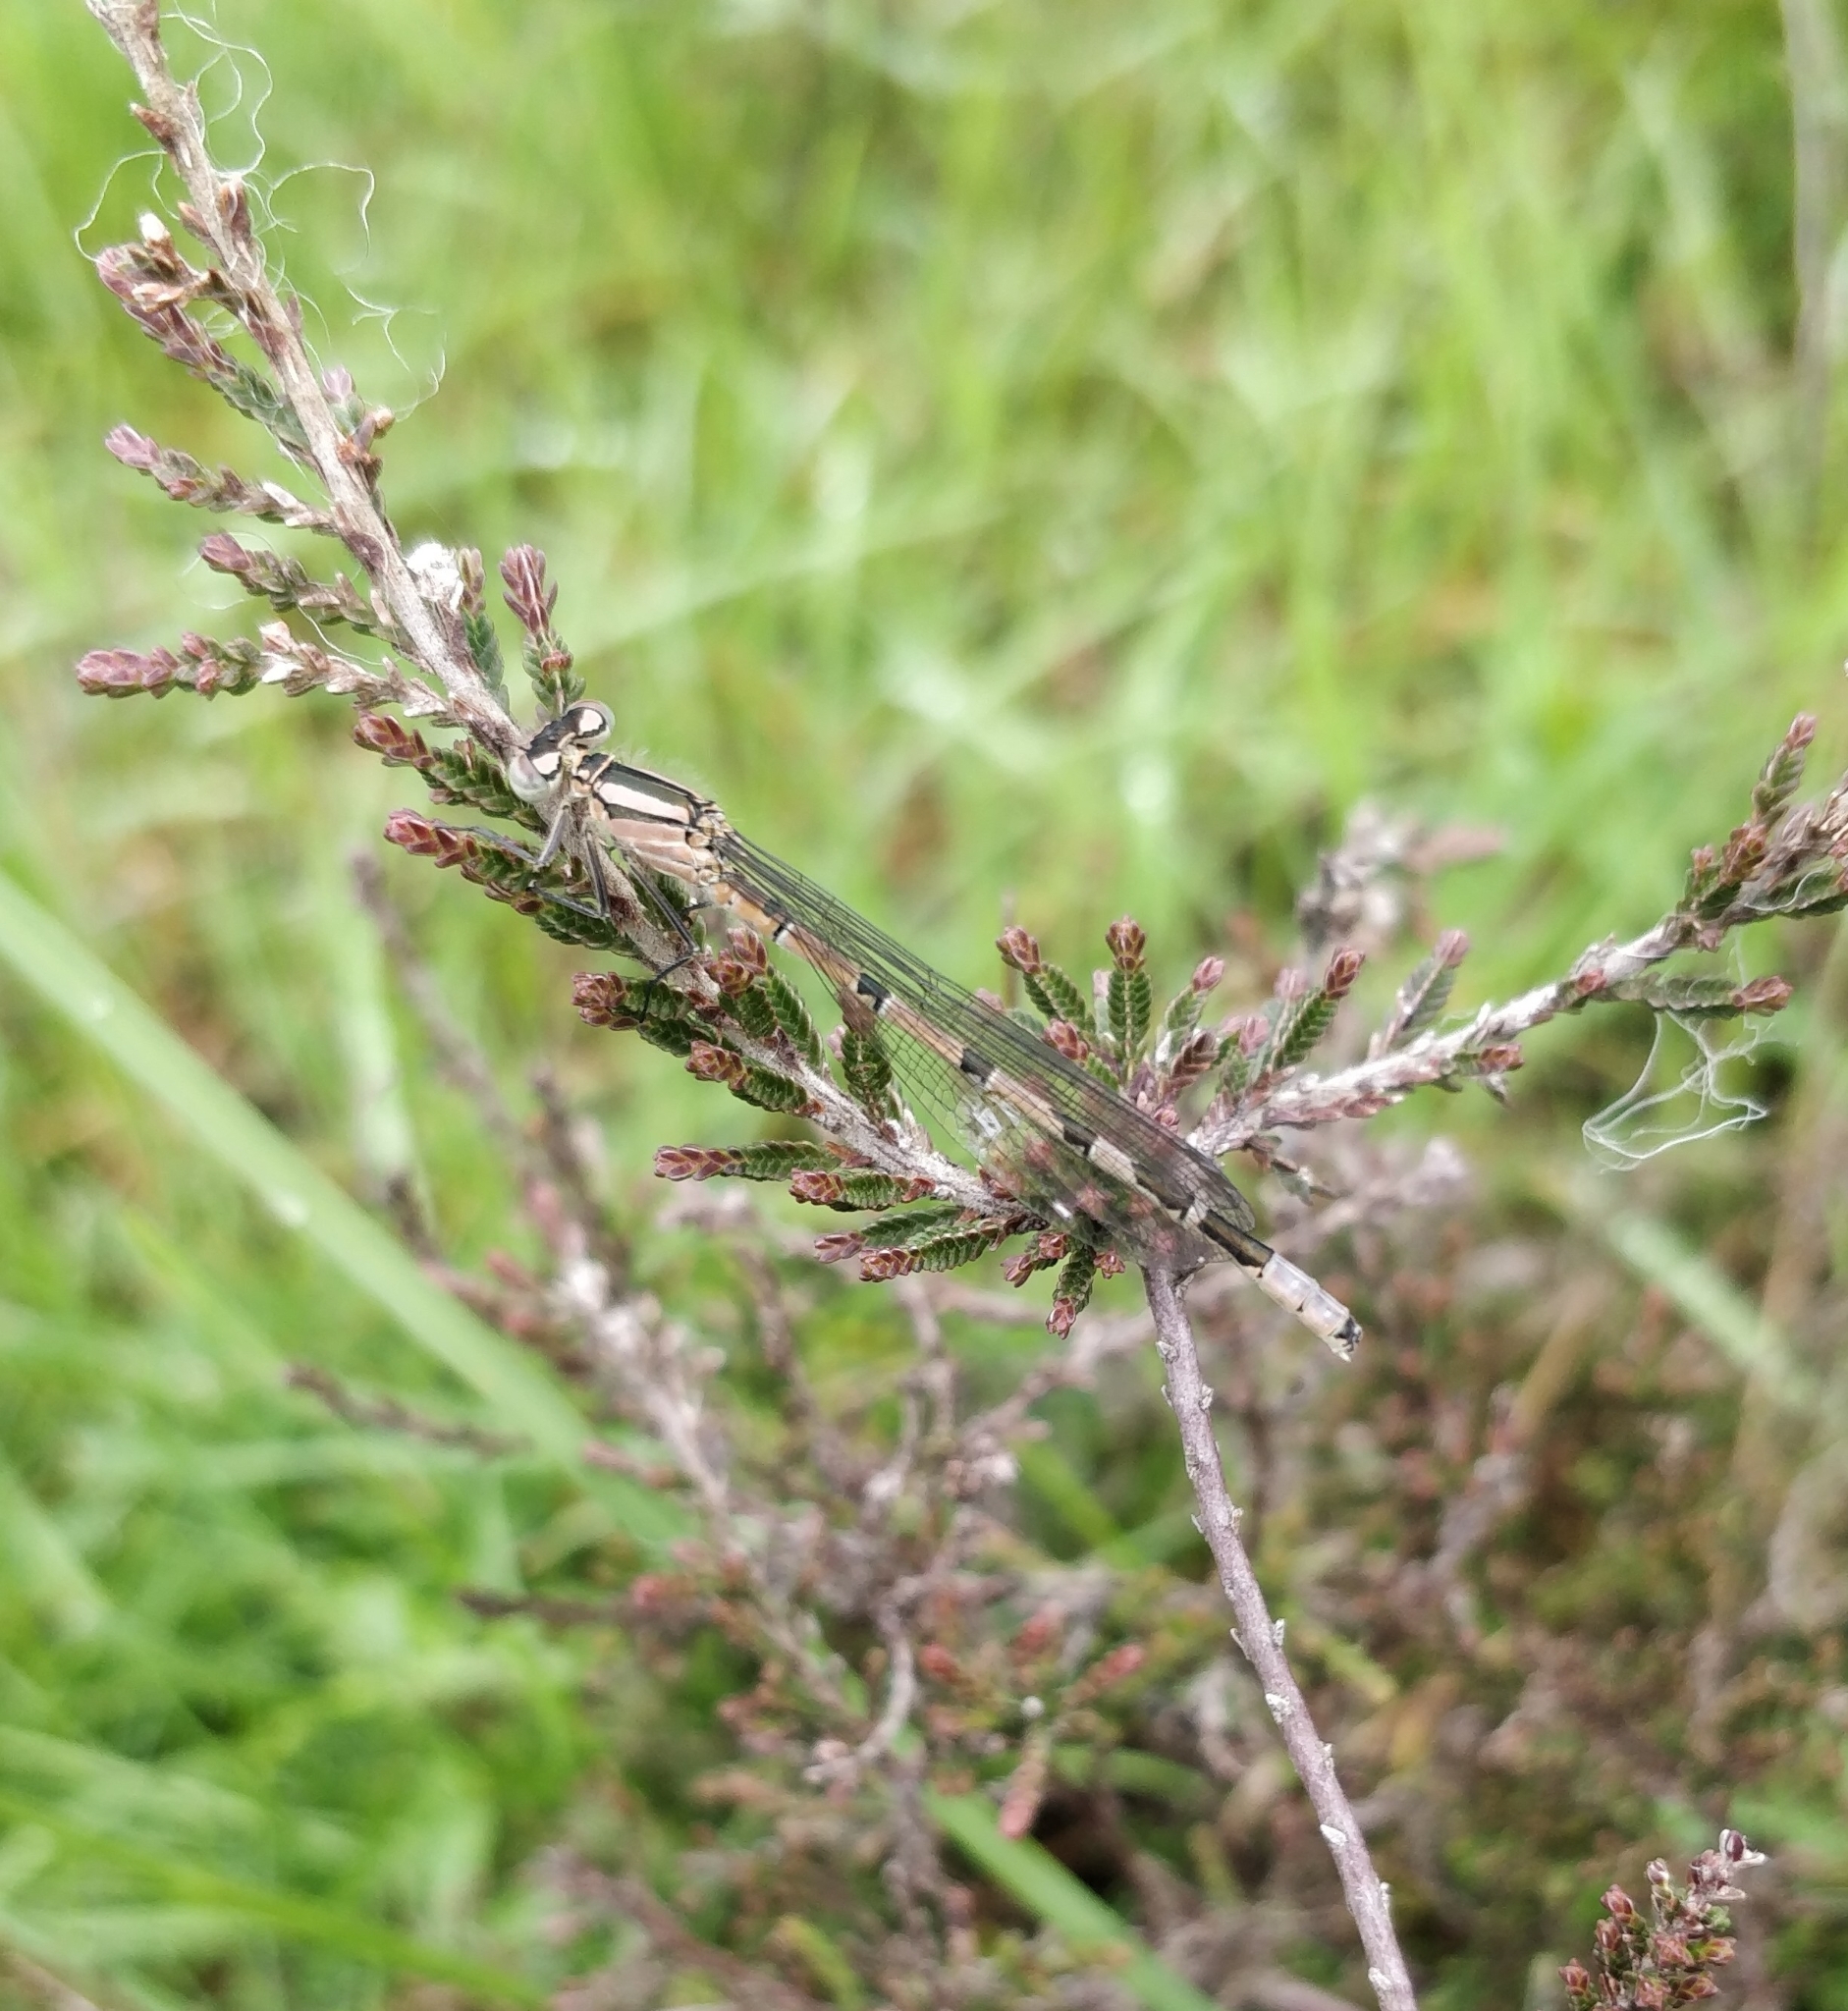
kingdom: Animalia
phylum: Arthropoda
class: Insecta
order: Odonata
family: Coenagrionidae
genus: Enallagma
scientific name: Enallagma cyathigerum
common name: Common blue damselfly
